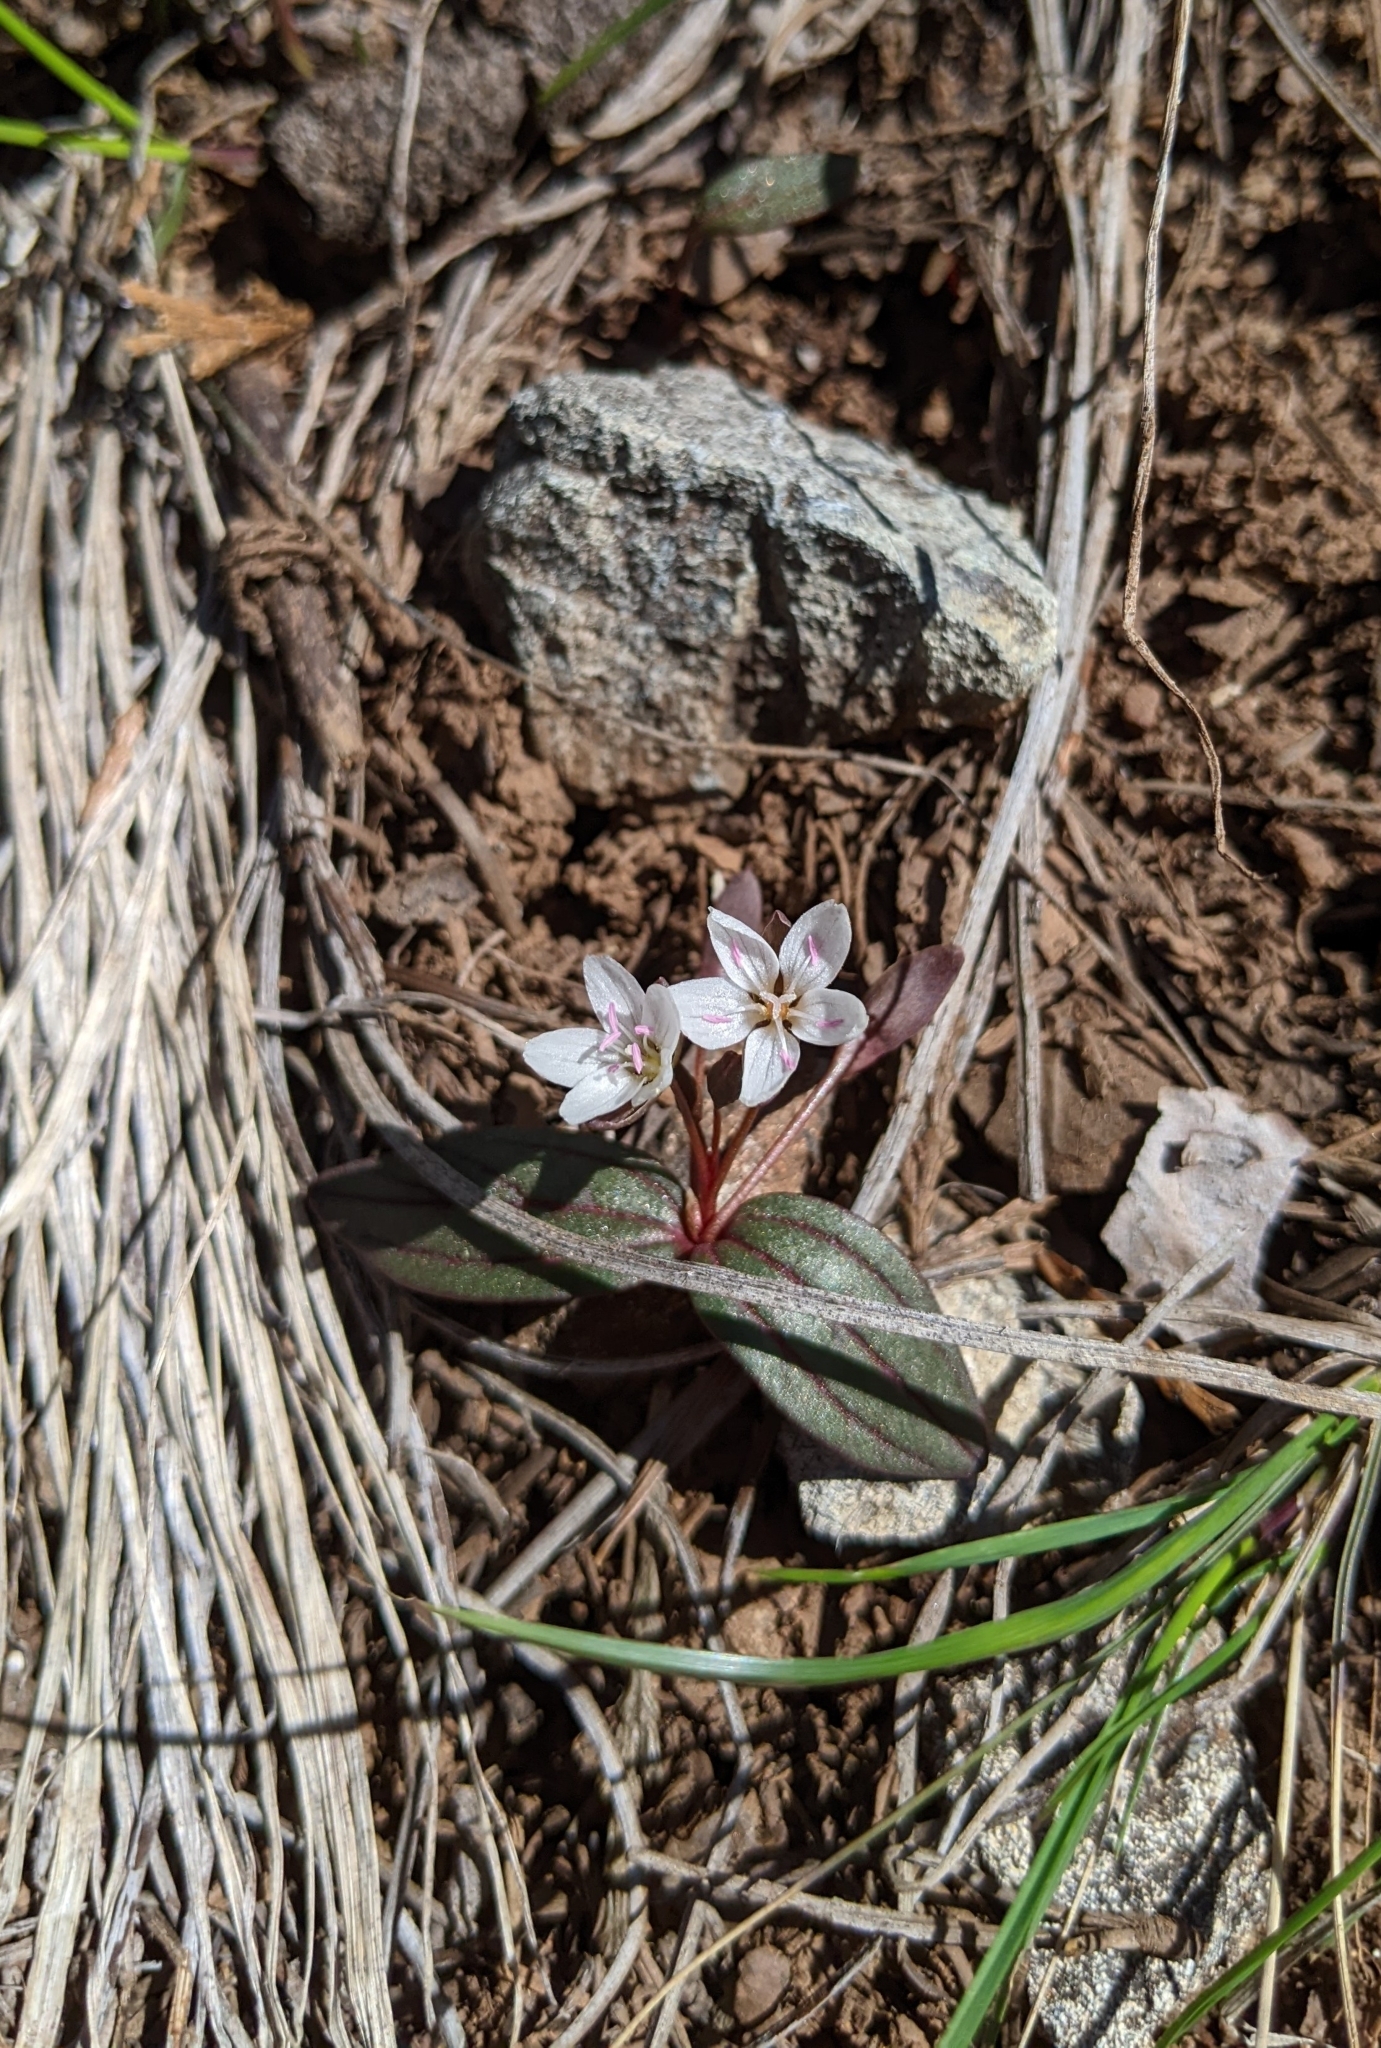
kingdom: Plantae
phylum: Tracheophyta
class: Magnoliopsida
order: Caryophyllales
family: Montiaceae
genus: Claytonia
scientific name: Claytonia obovata
